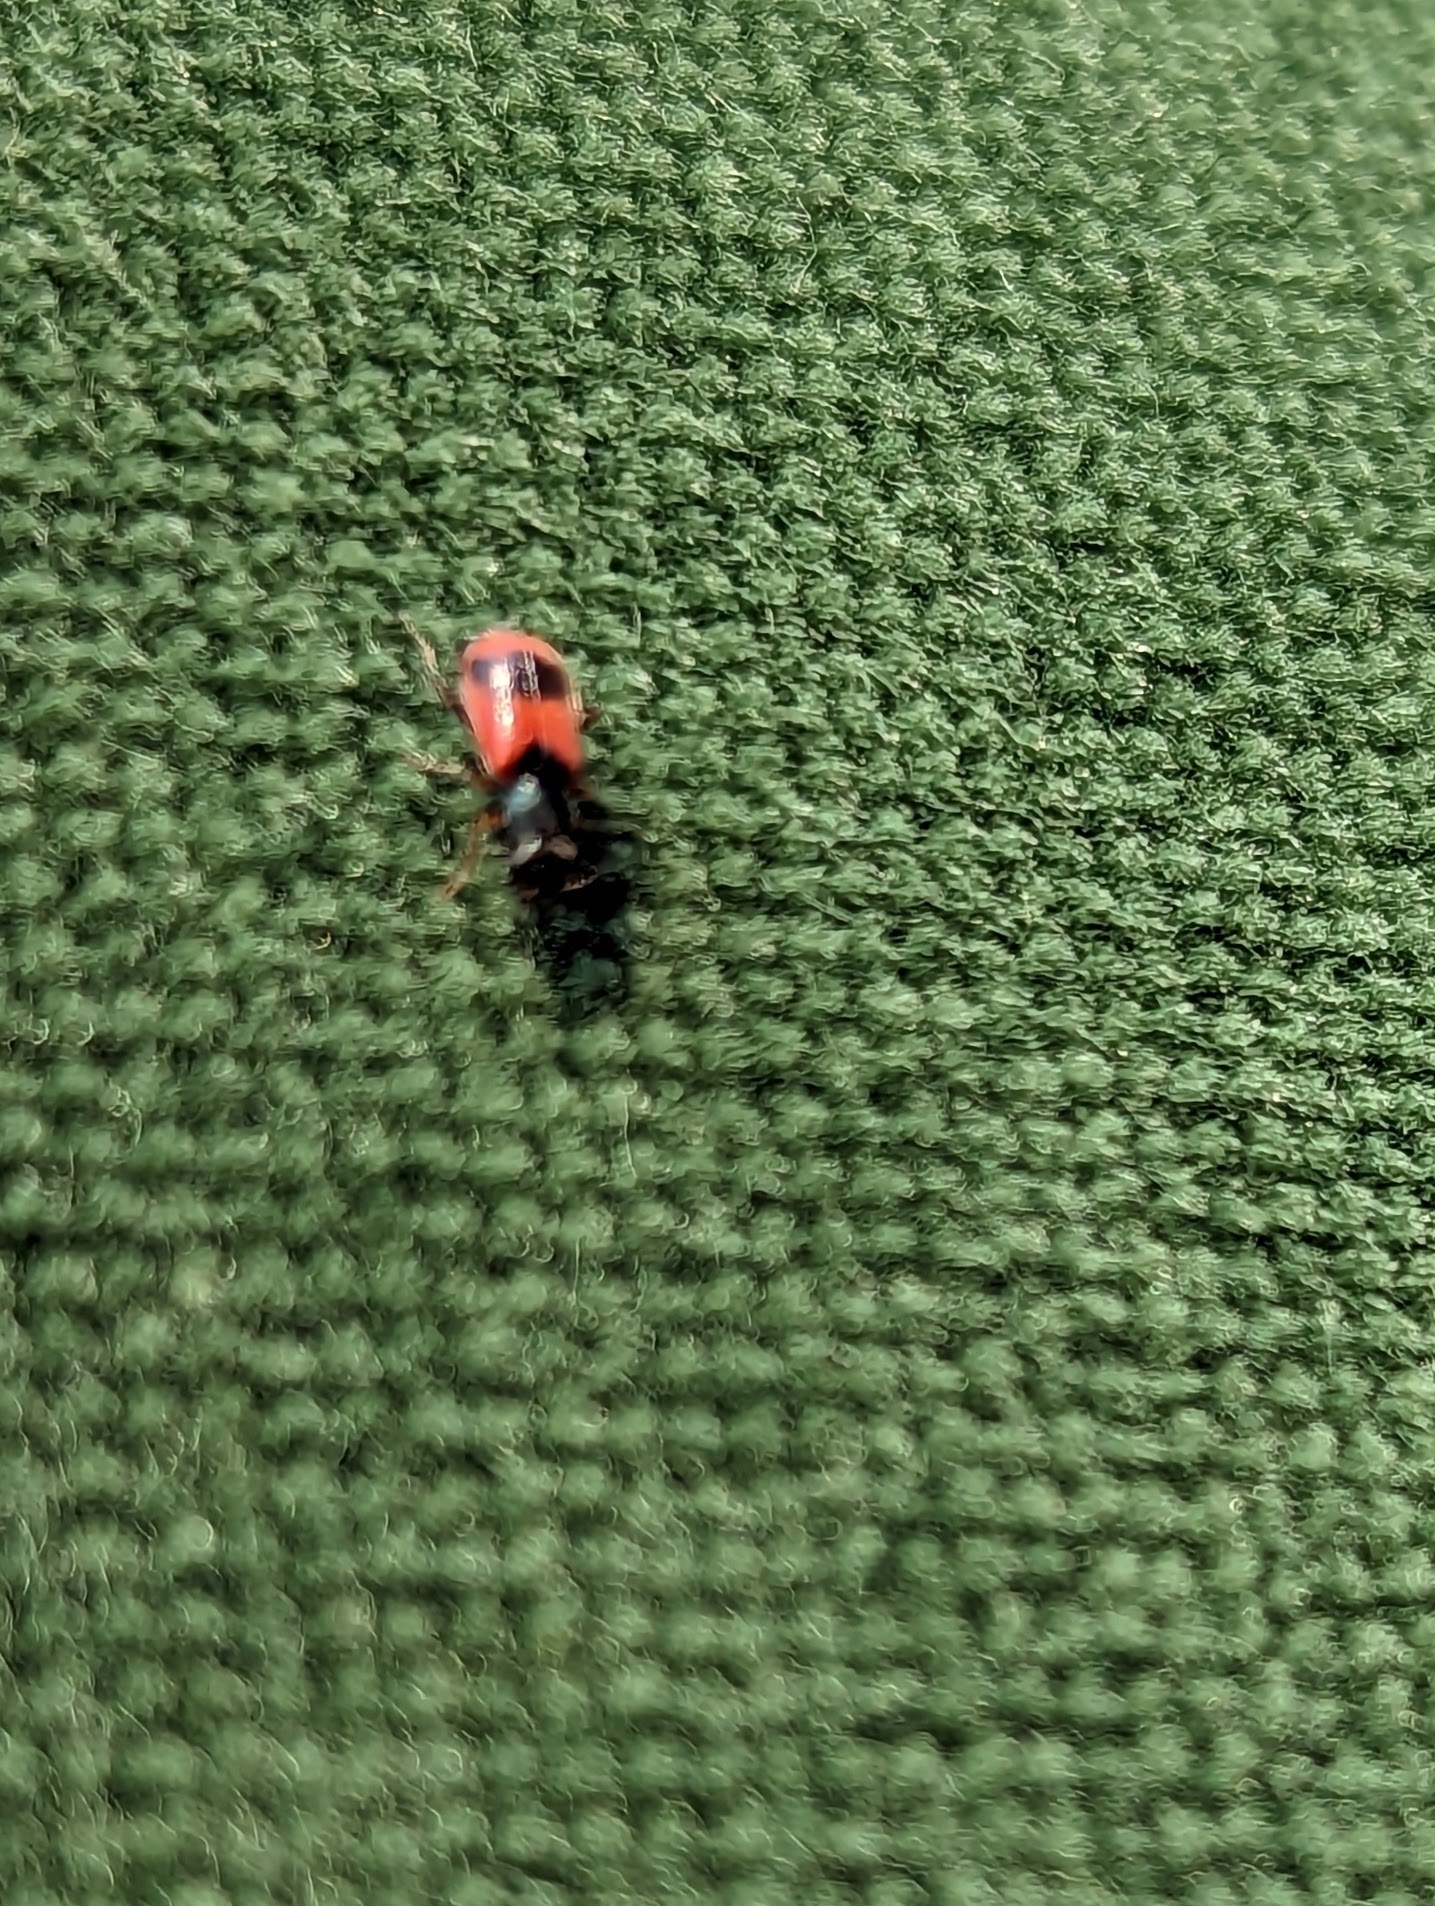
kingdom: Animalia
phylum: Arthropoda
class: Insecta
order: Coleoptera
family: Melyridae
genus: Anthocomus
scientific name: Anthocomus equestris
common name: Black-banded soft-winged flower beetle
